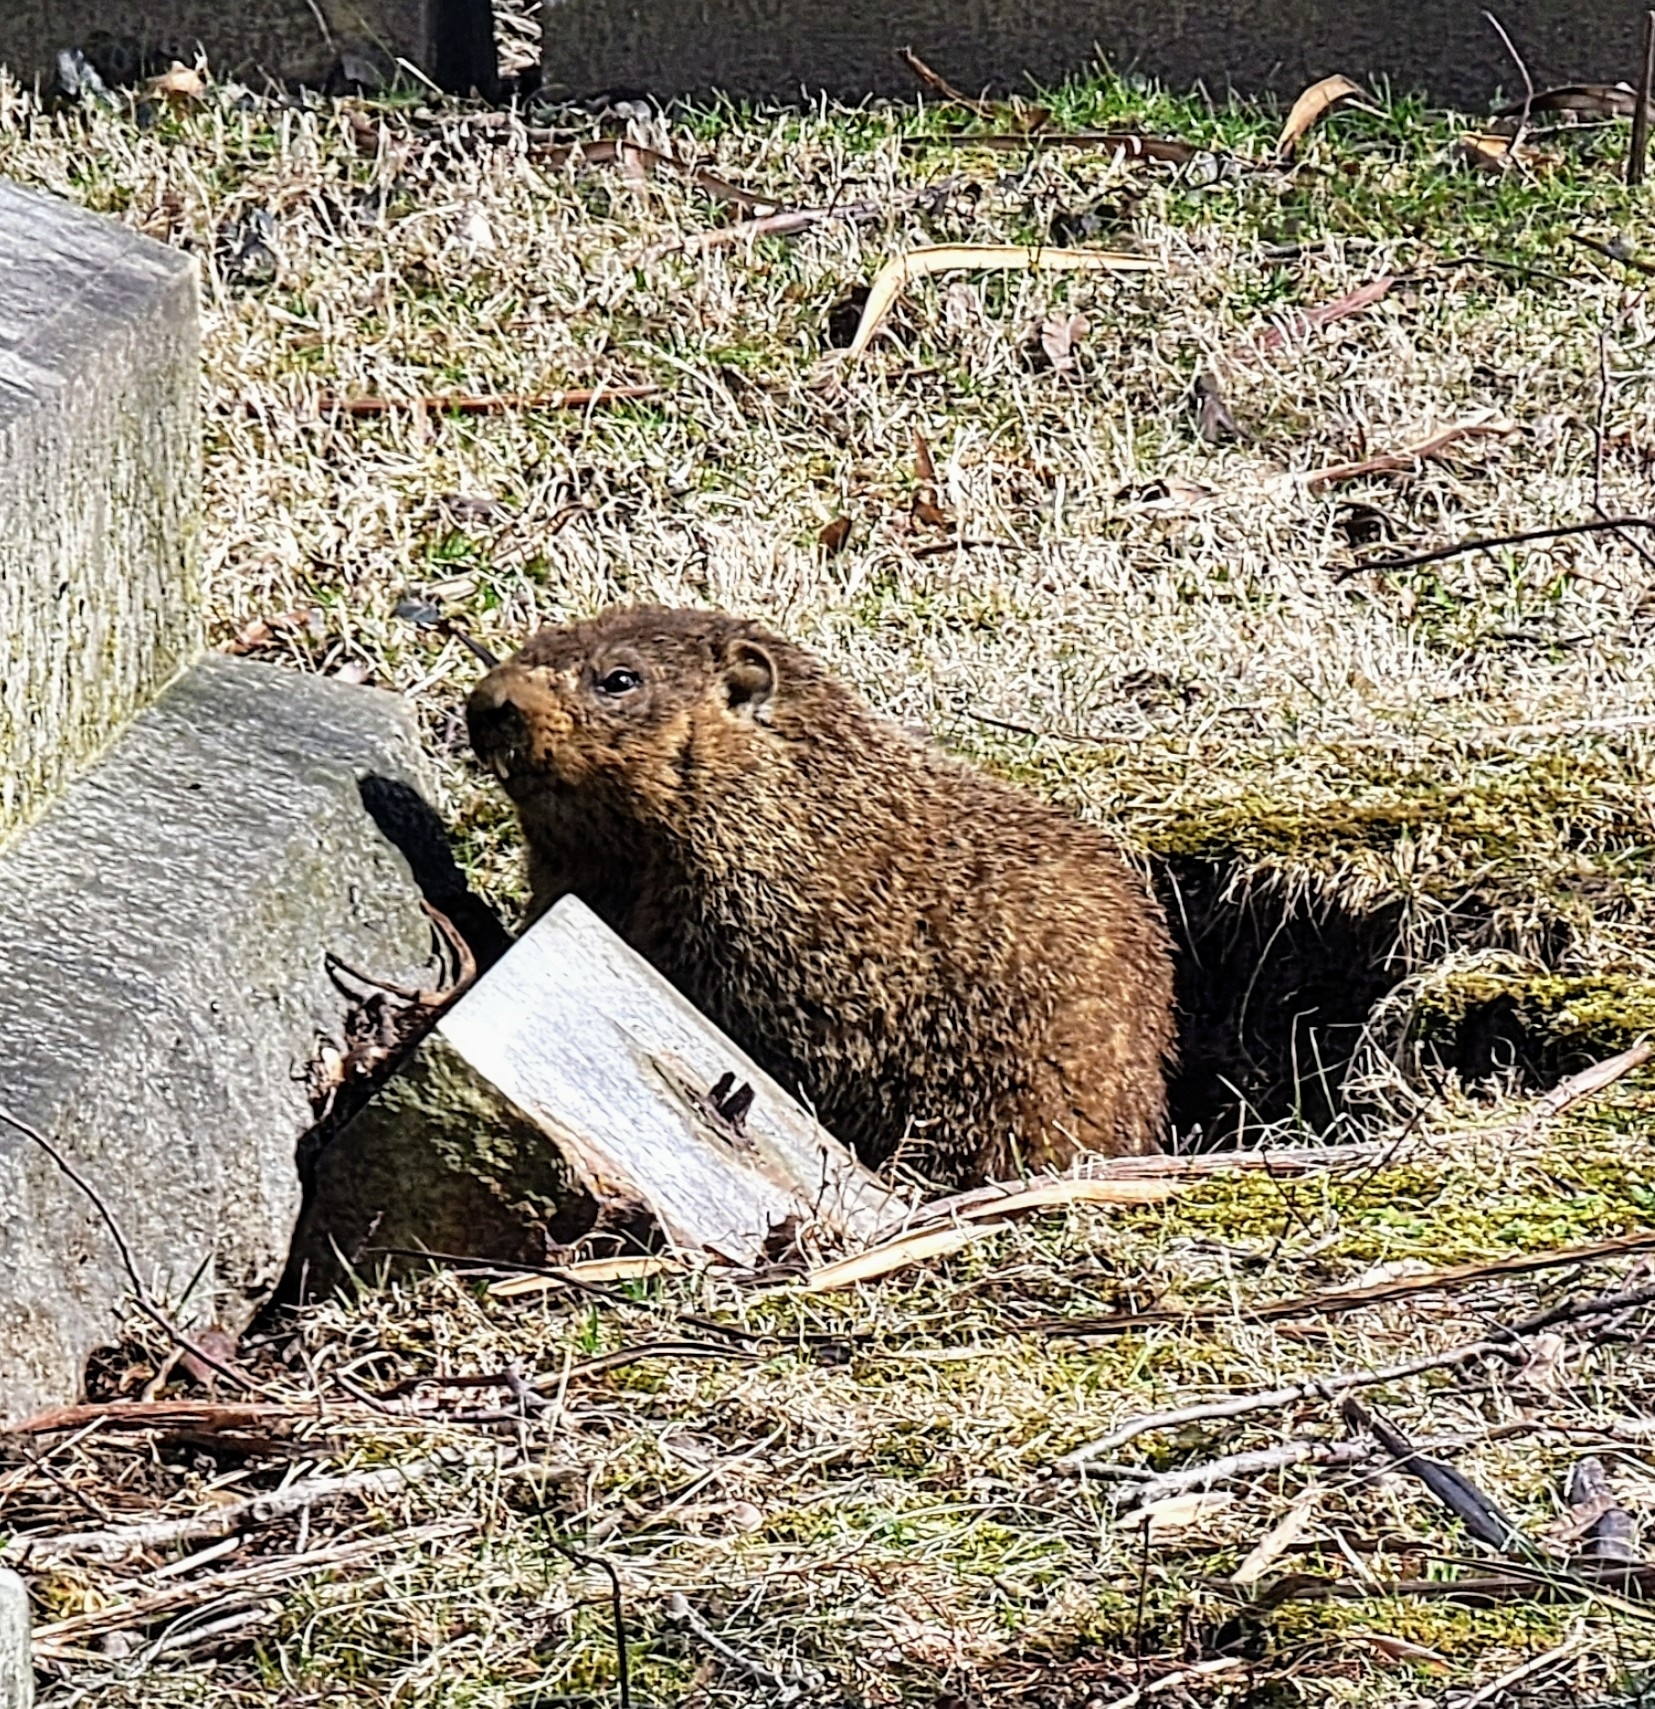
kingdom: Animalia
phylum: Chordata
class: Mammalia
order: Rodentia
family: Sciuridae
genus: Marmota
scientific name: Marmota monax
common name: Groundhog
